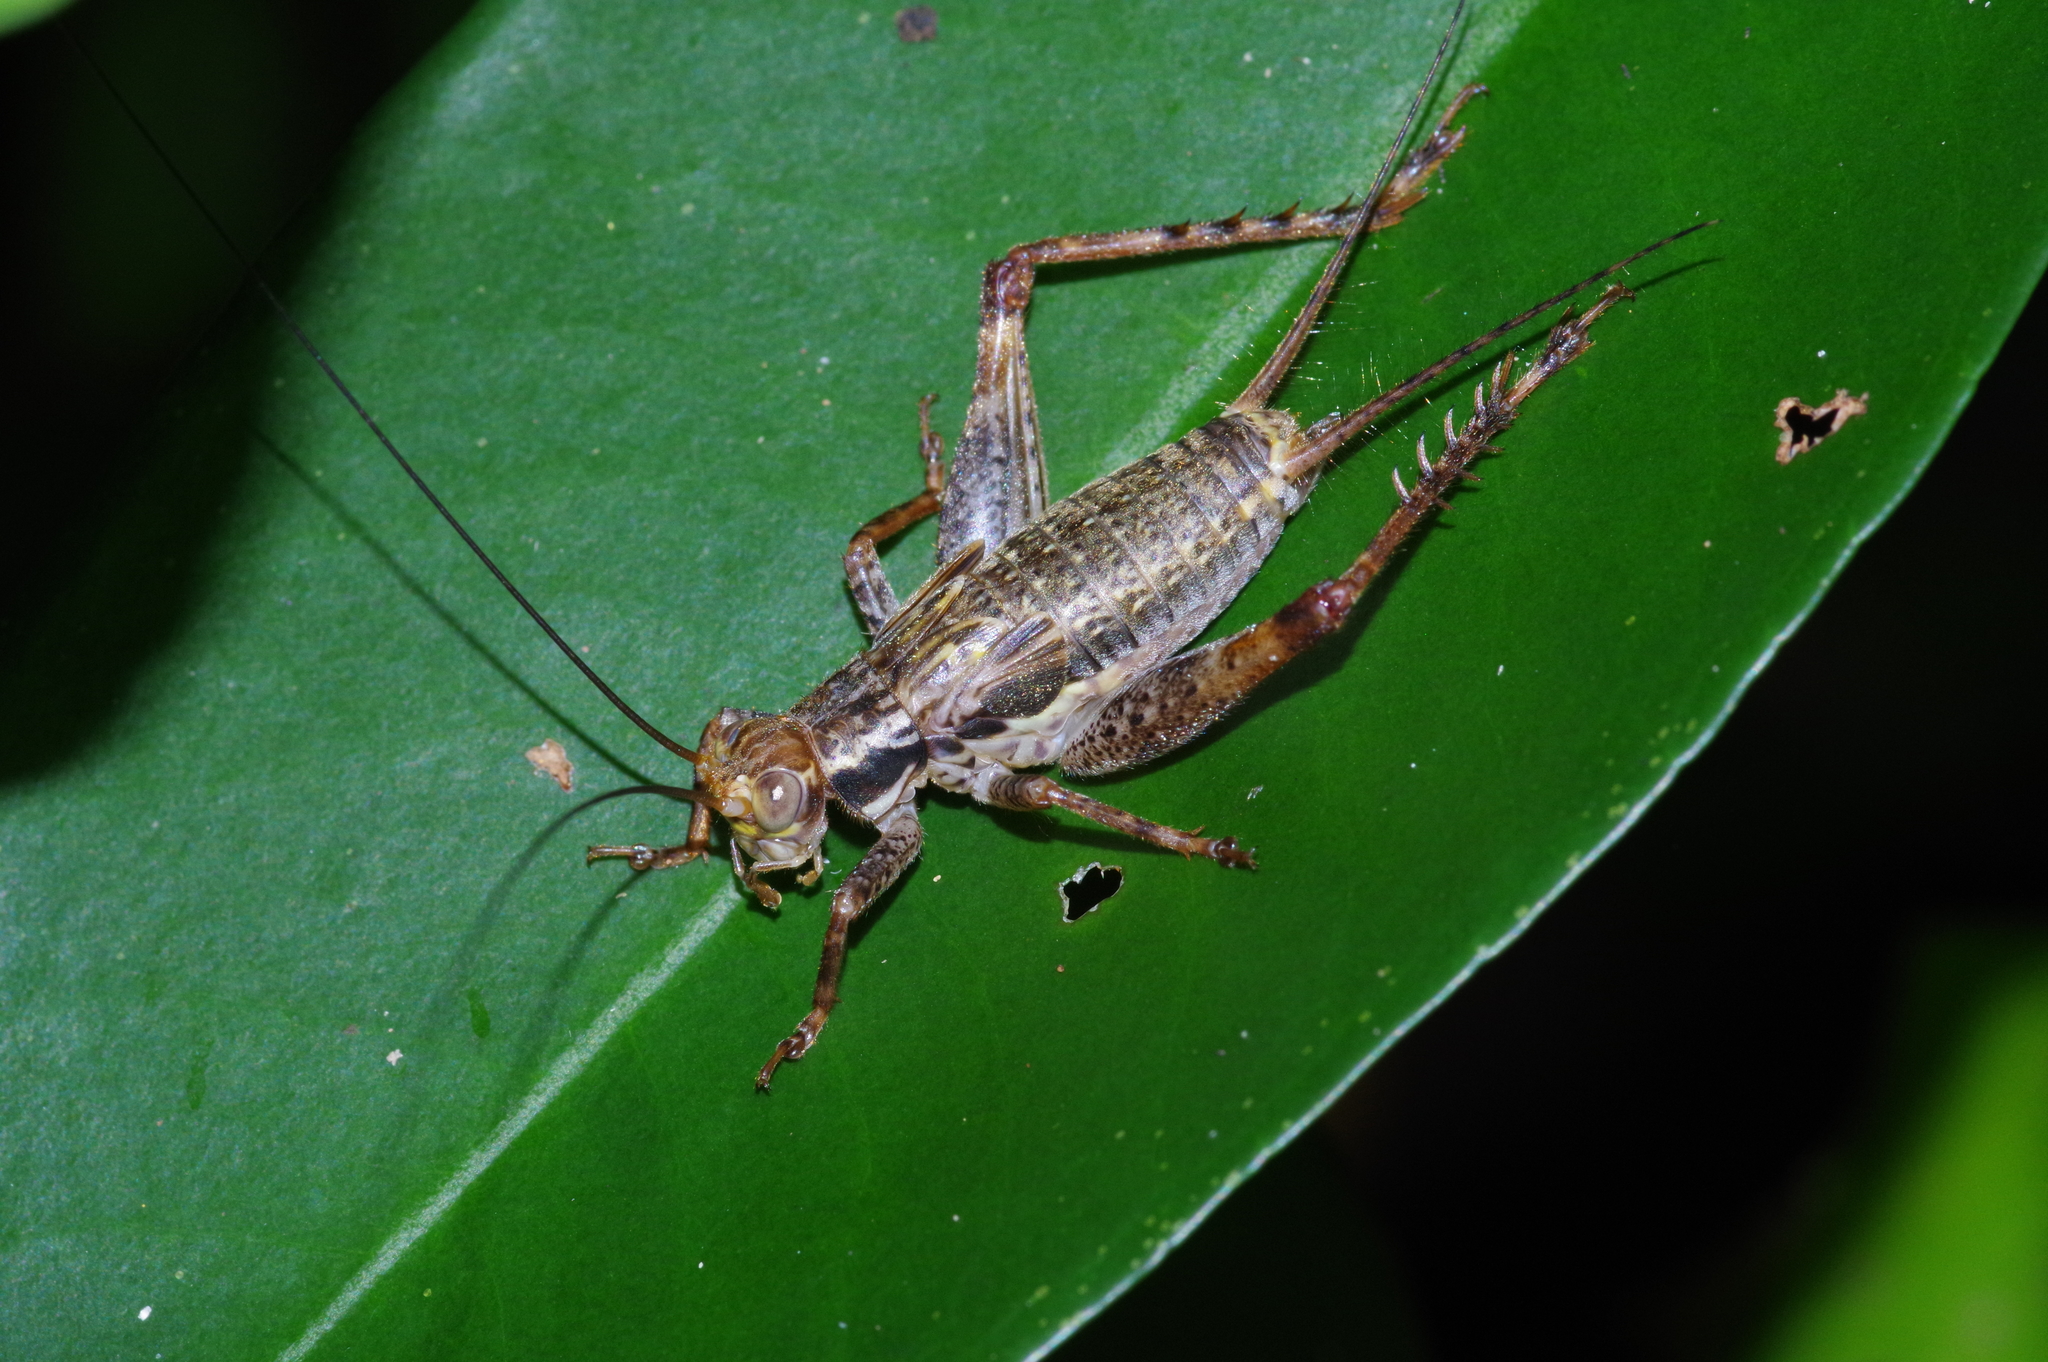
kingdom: Animalia
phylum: Arthropoda
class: Insecta
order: Orthoptera
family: Gryllidae
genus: Cardiodactylus
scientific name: Cardiodactylus guttulus
